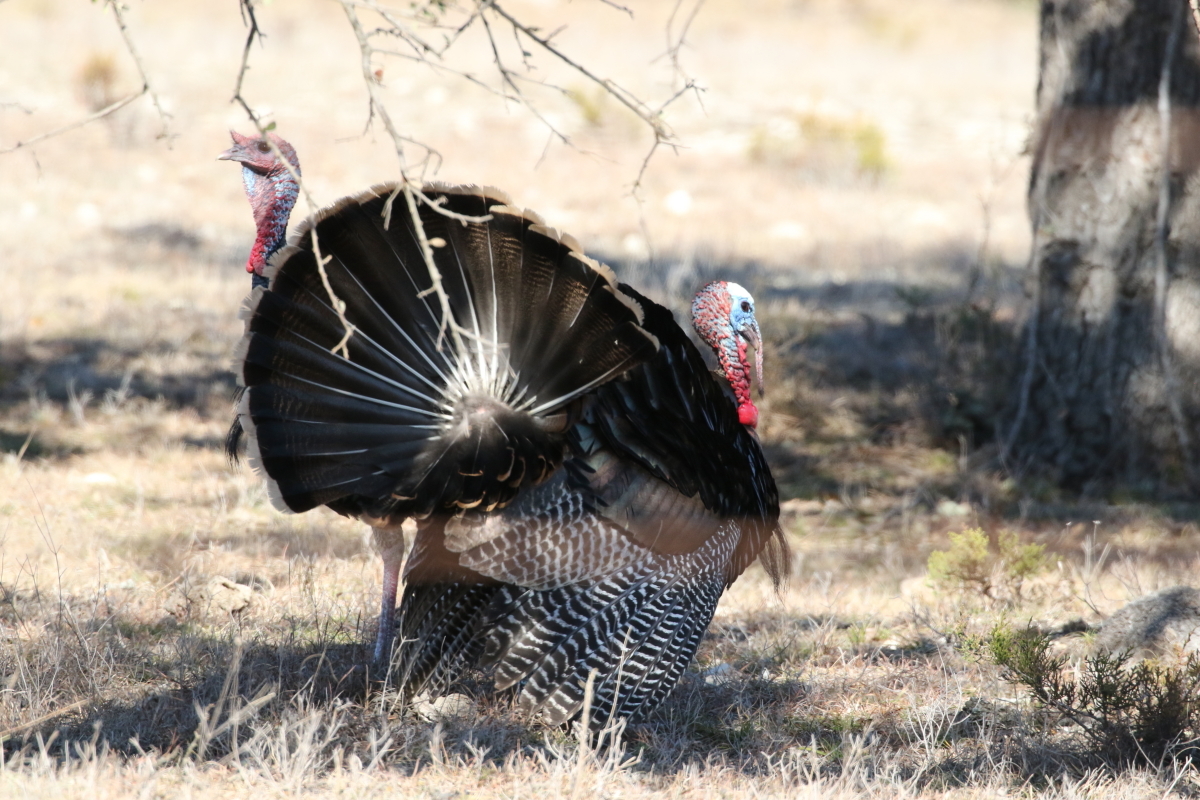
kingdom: Animalia
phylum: Chordata
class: Aves
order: Galliformes
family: Phasianidae
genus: Meleagris
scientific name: Meleagris gallopavo
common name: Wild turkey
